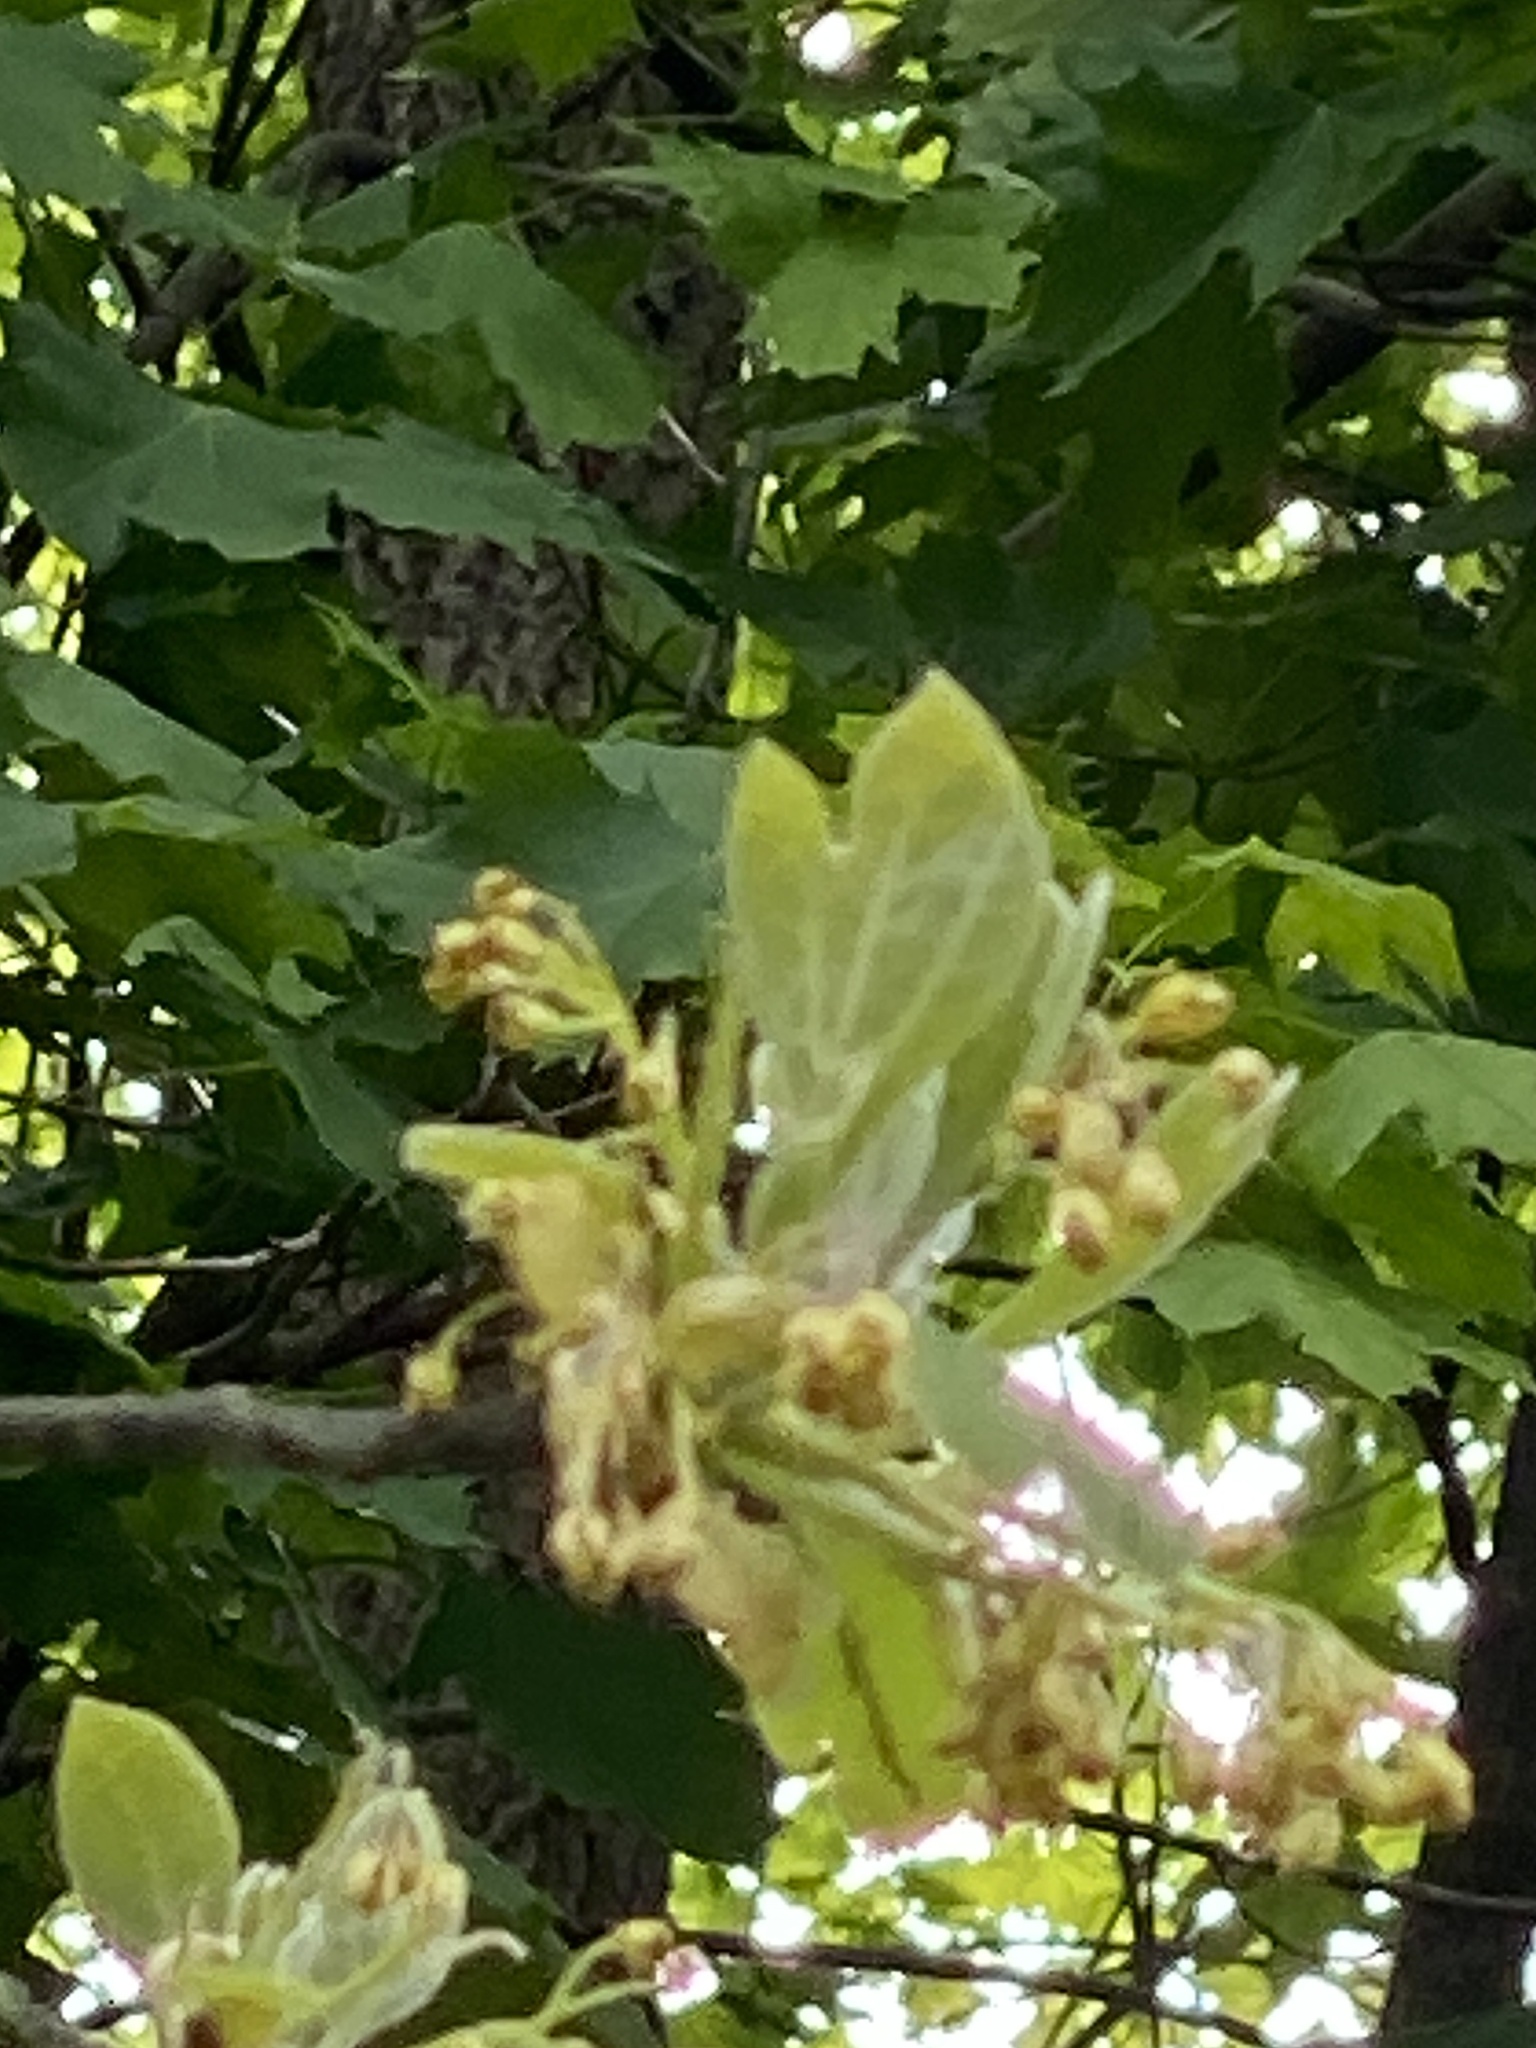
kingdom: Plantae
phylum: Tracheophyta
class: Magnoliopsida
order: Laurales
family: Lauraceae
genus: Sassafras
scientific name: Sassafras albidum
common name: Sassafras
